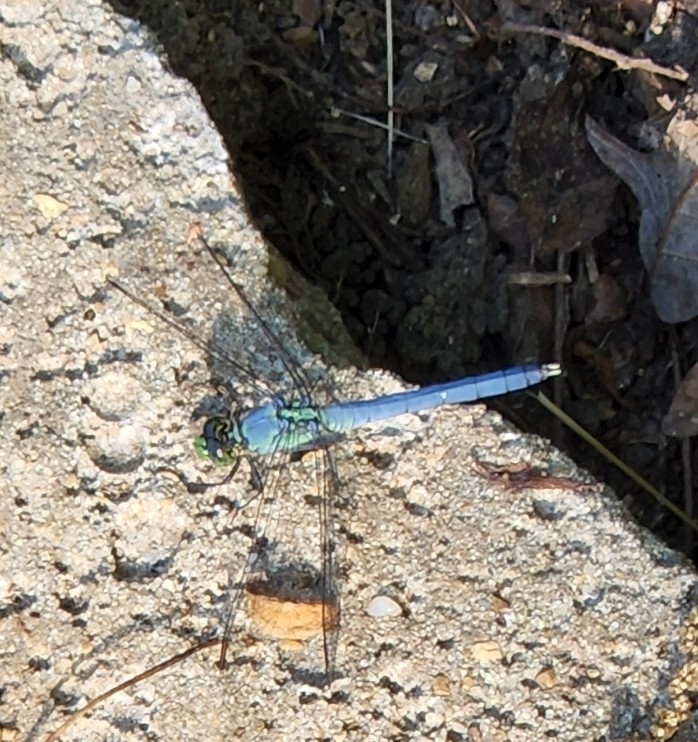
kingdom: Animalia
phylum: Arthropoda
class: Insecta
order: Odonata
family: Libellulidae
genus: Erythemis
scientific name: Erythemis simplicicollis
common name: Eastern pondhawk
